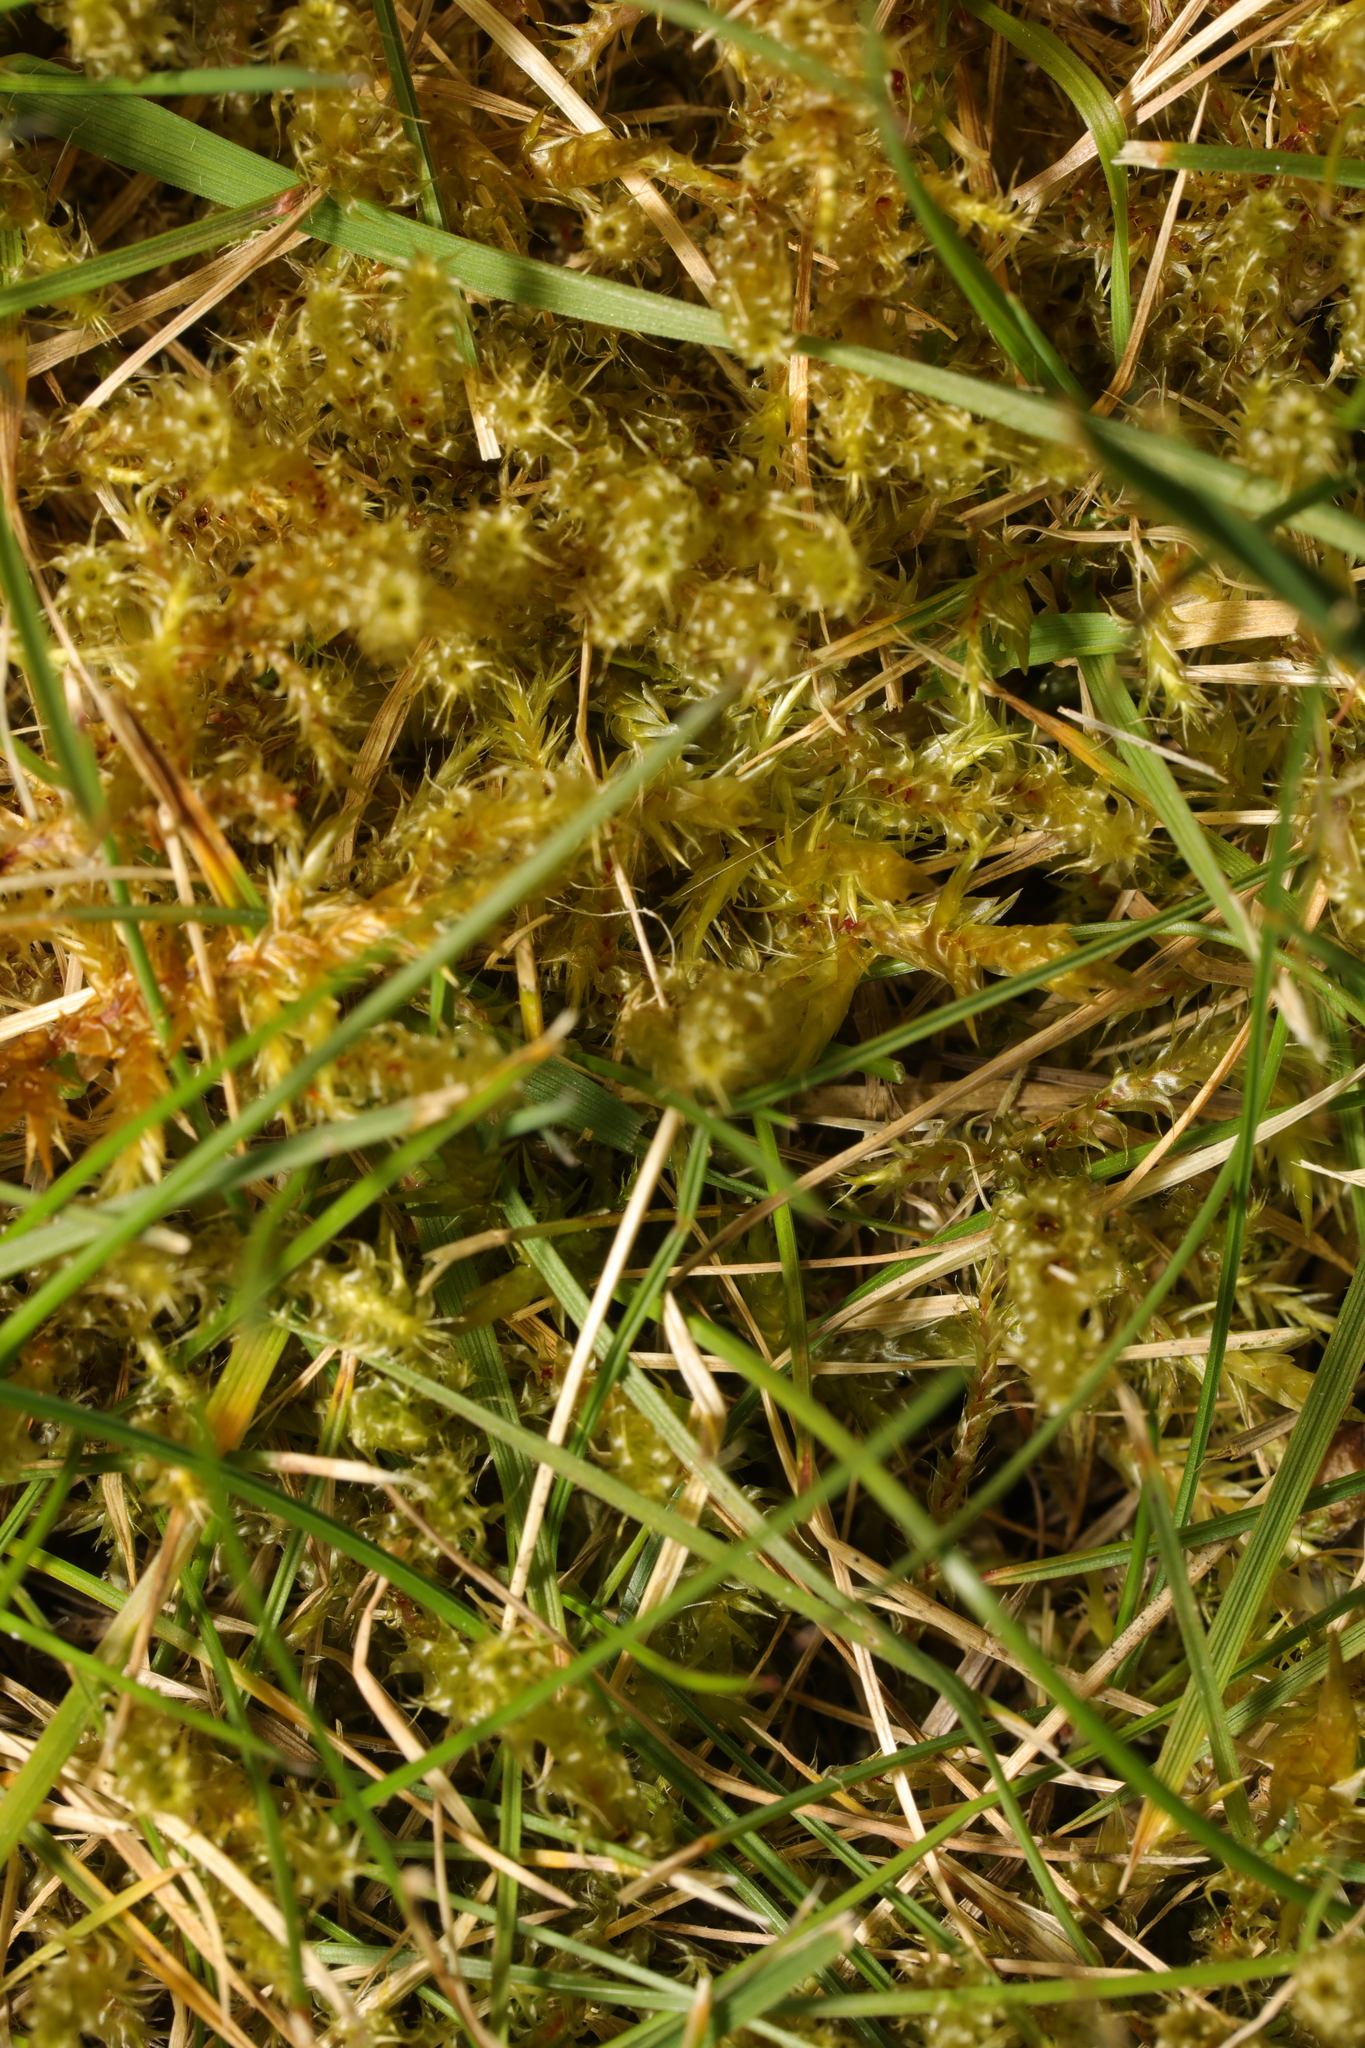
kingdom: Plantae
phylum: Bryophyta
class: Bryopsida
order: Hypnales
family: Hylocomiaceae
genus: Rhytidiadelphus
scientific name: Rhytidiadelphus squarrosus
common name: Springy turf-moss
